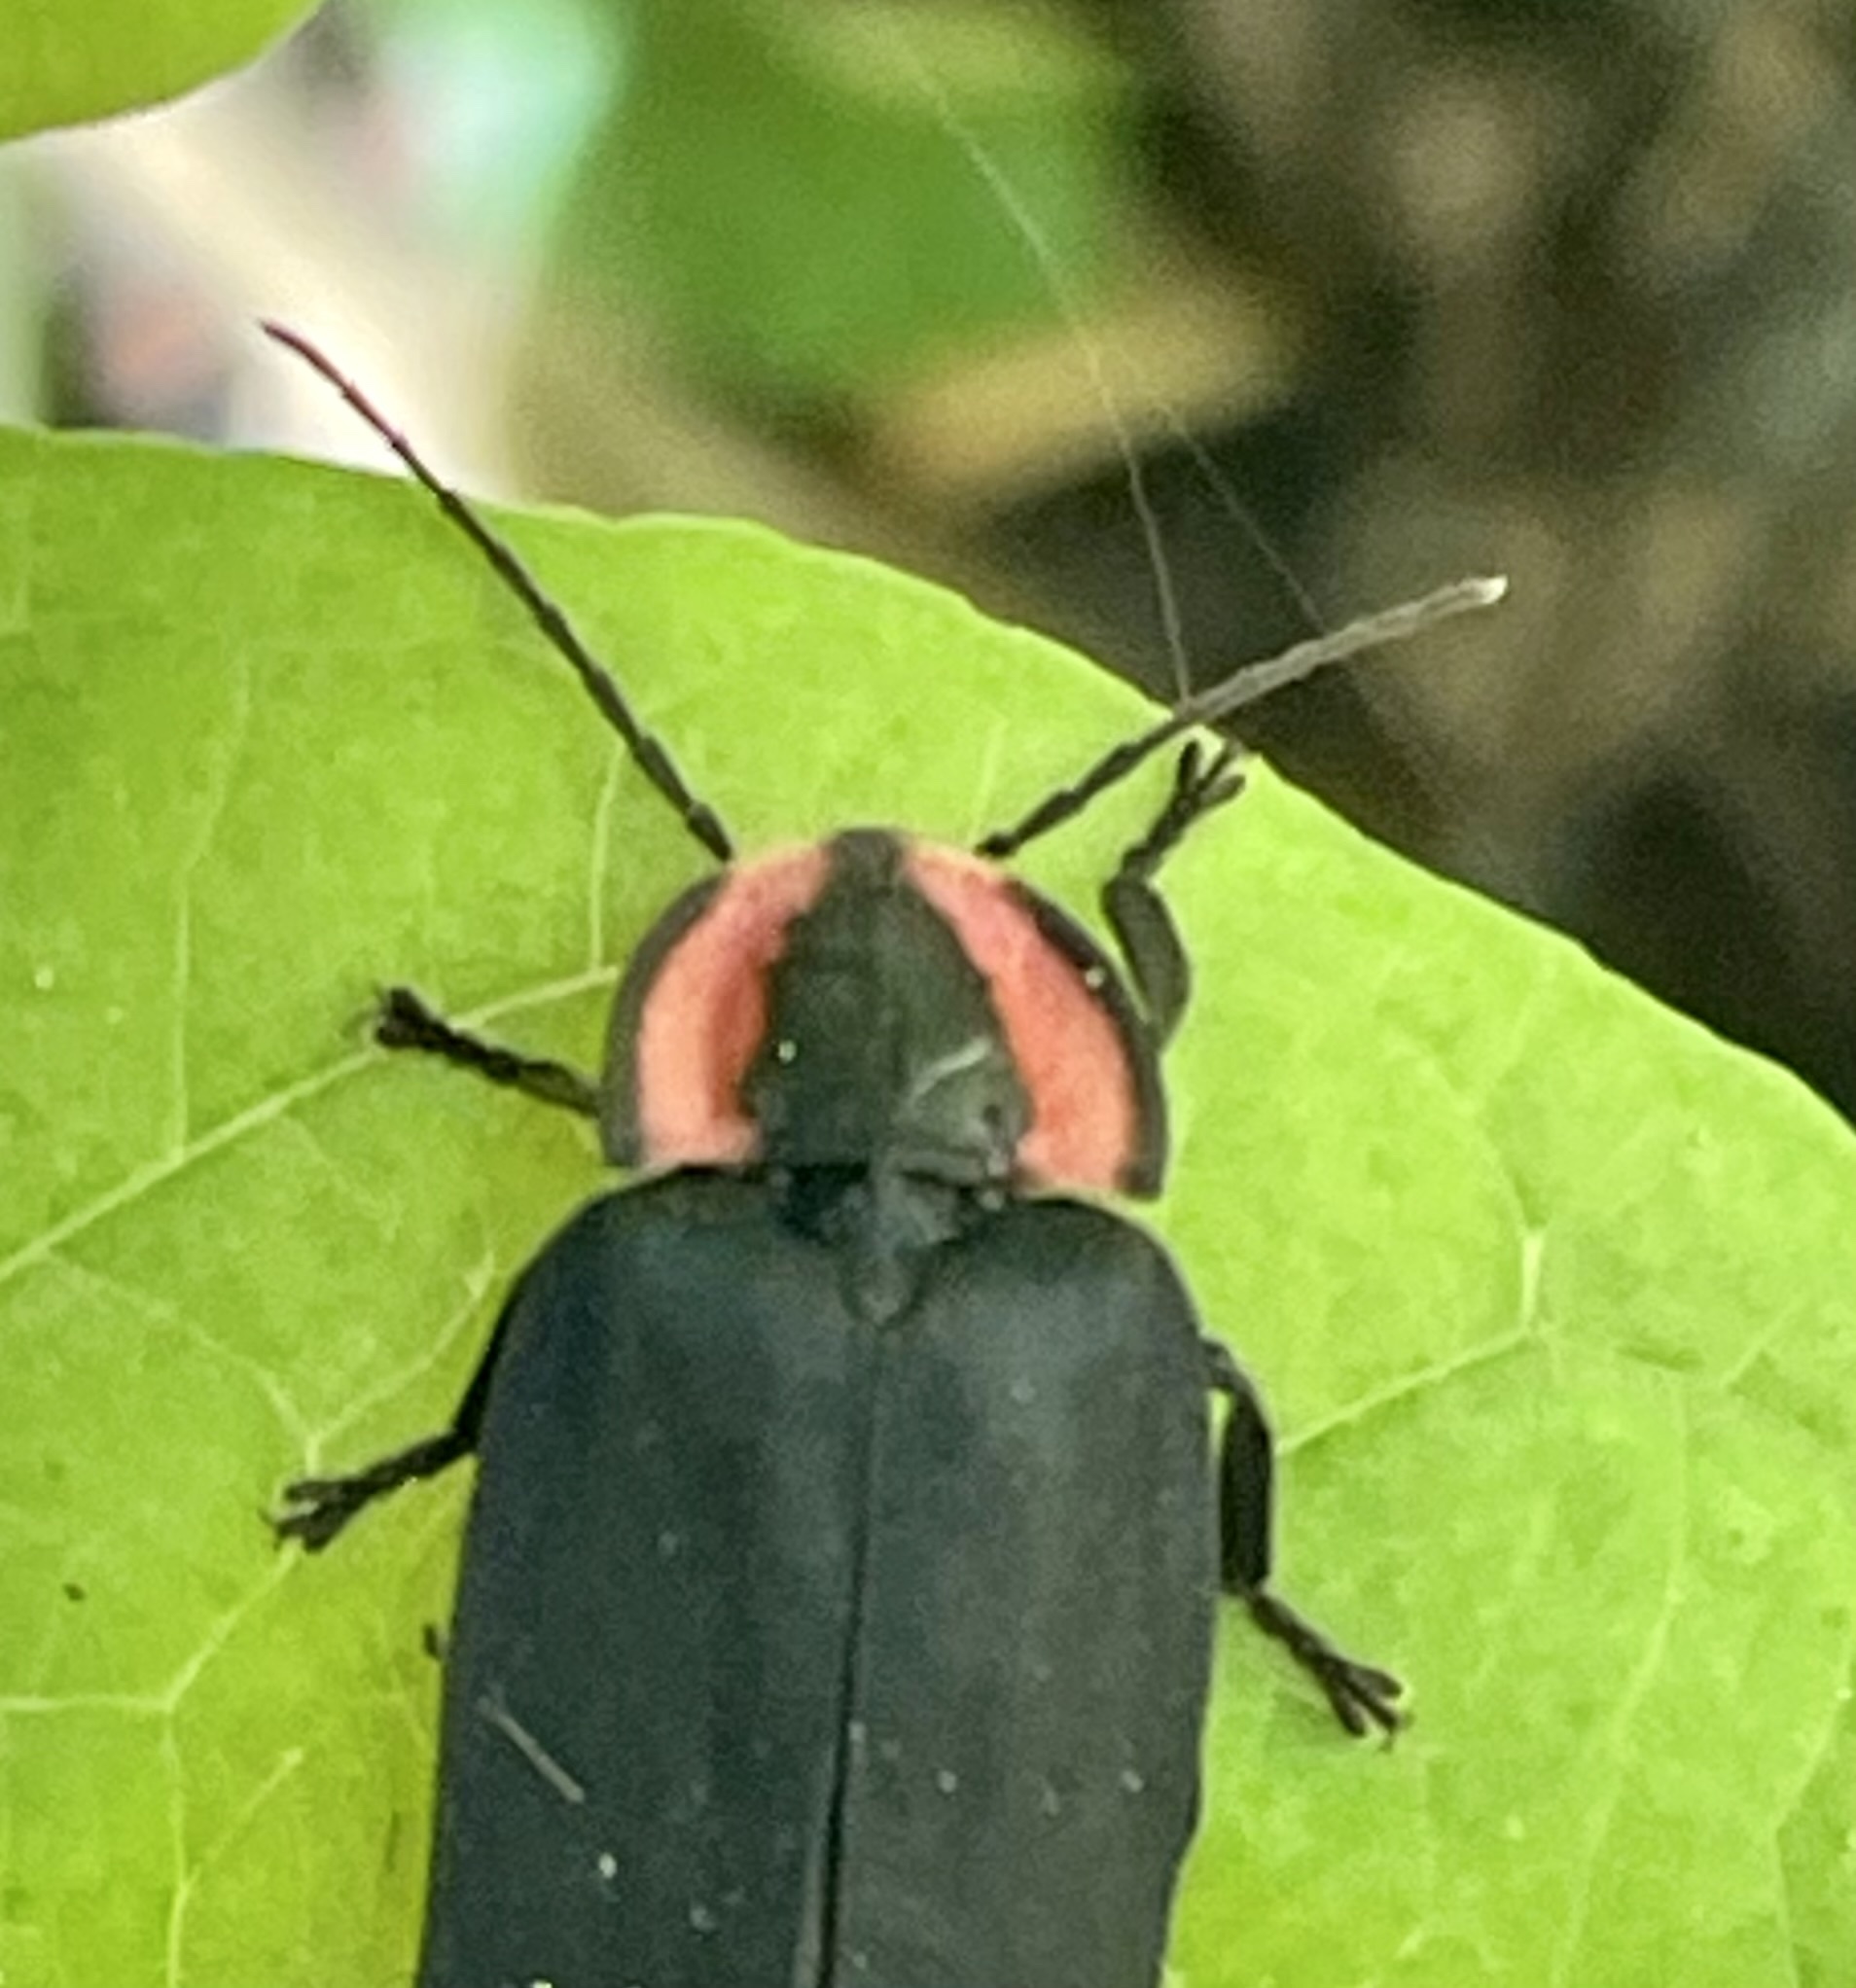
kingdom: Animalia
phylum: Arthropoda
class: Insecta
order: Coleoptera
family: Lampyridae
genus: Photinus
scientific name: Photinus californica
